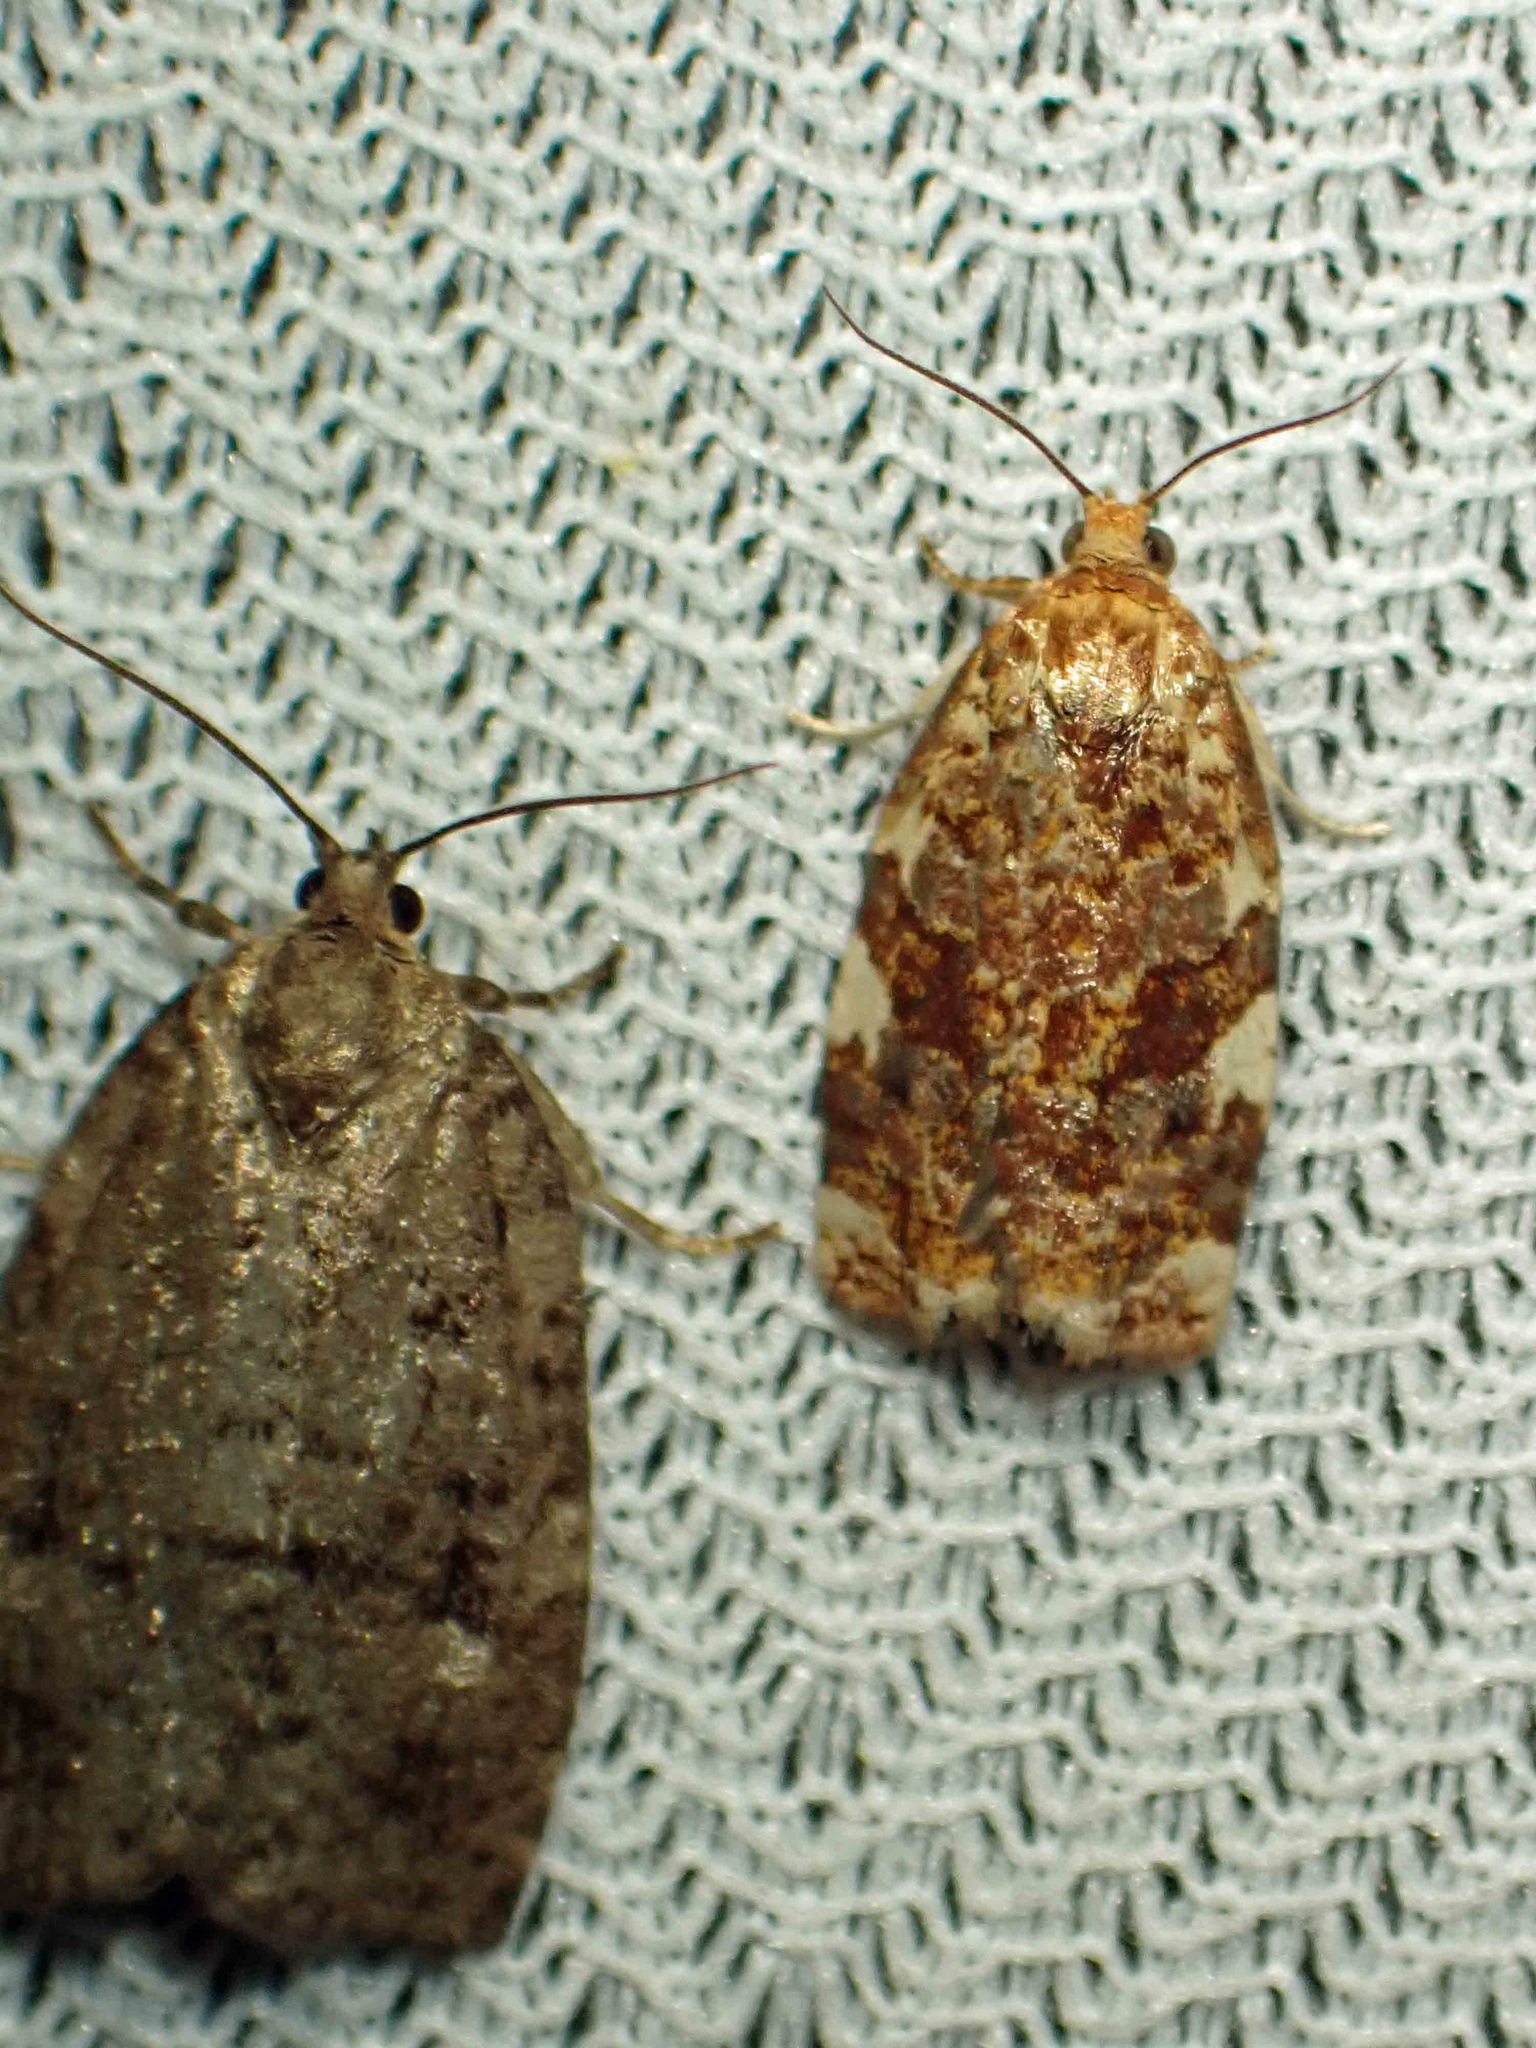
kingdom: Animalia
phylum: Arthropoda
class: Insecta
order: Lepidoptera
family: Tortricidae
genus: Archips
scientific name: Archips argyrospila
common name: Fruit-tree leafroller moth
